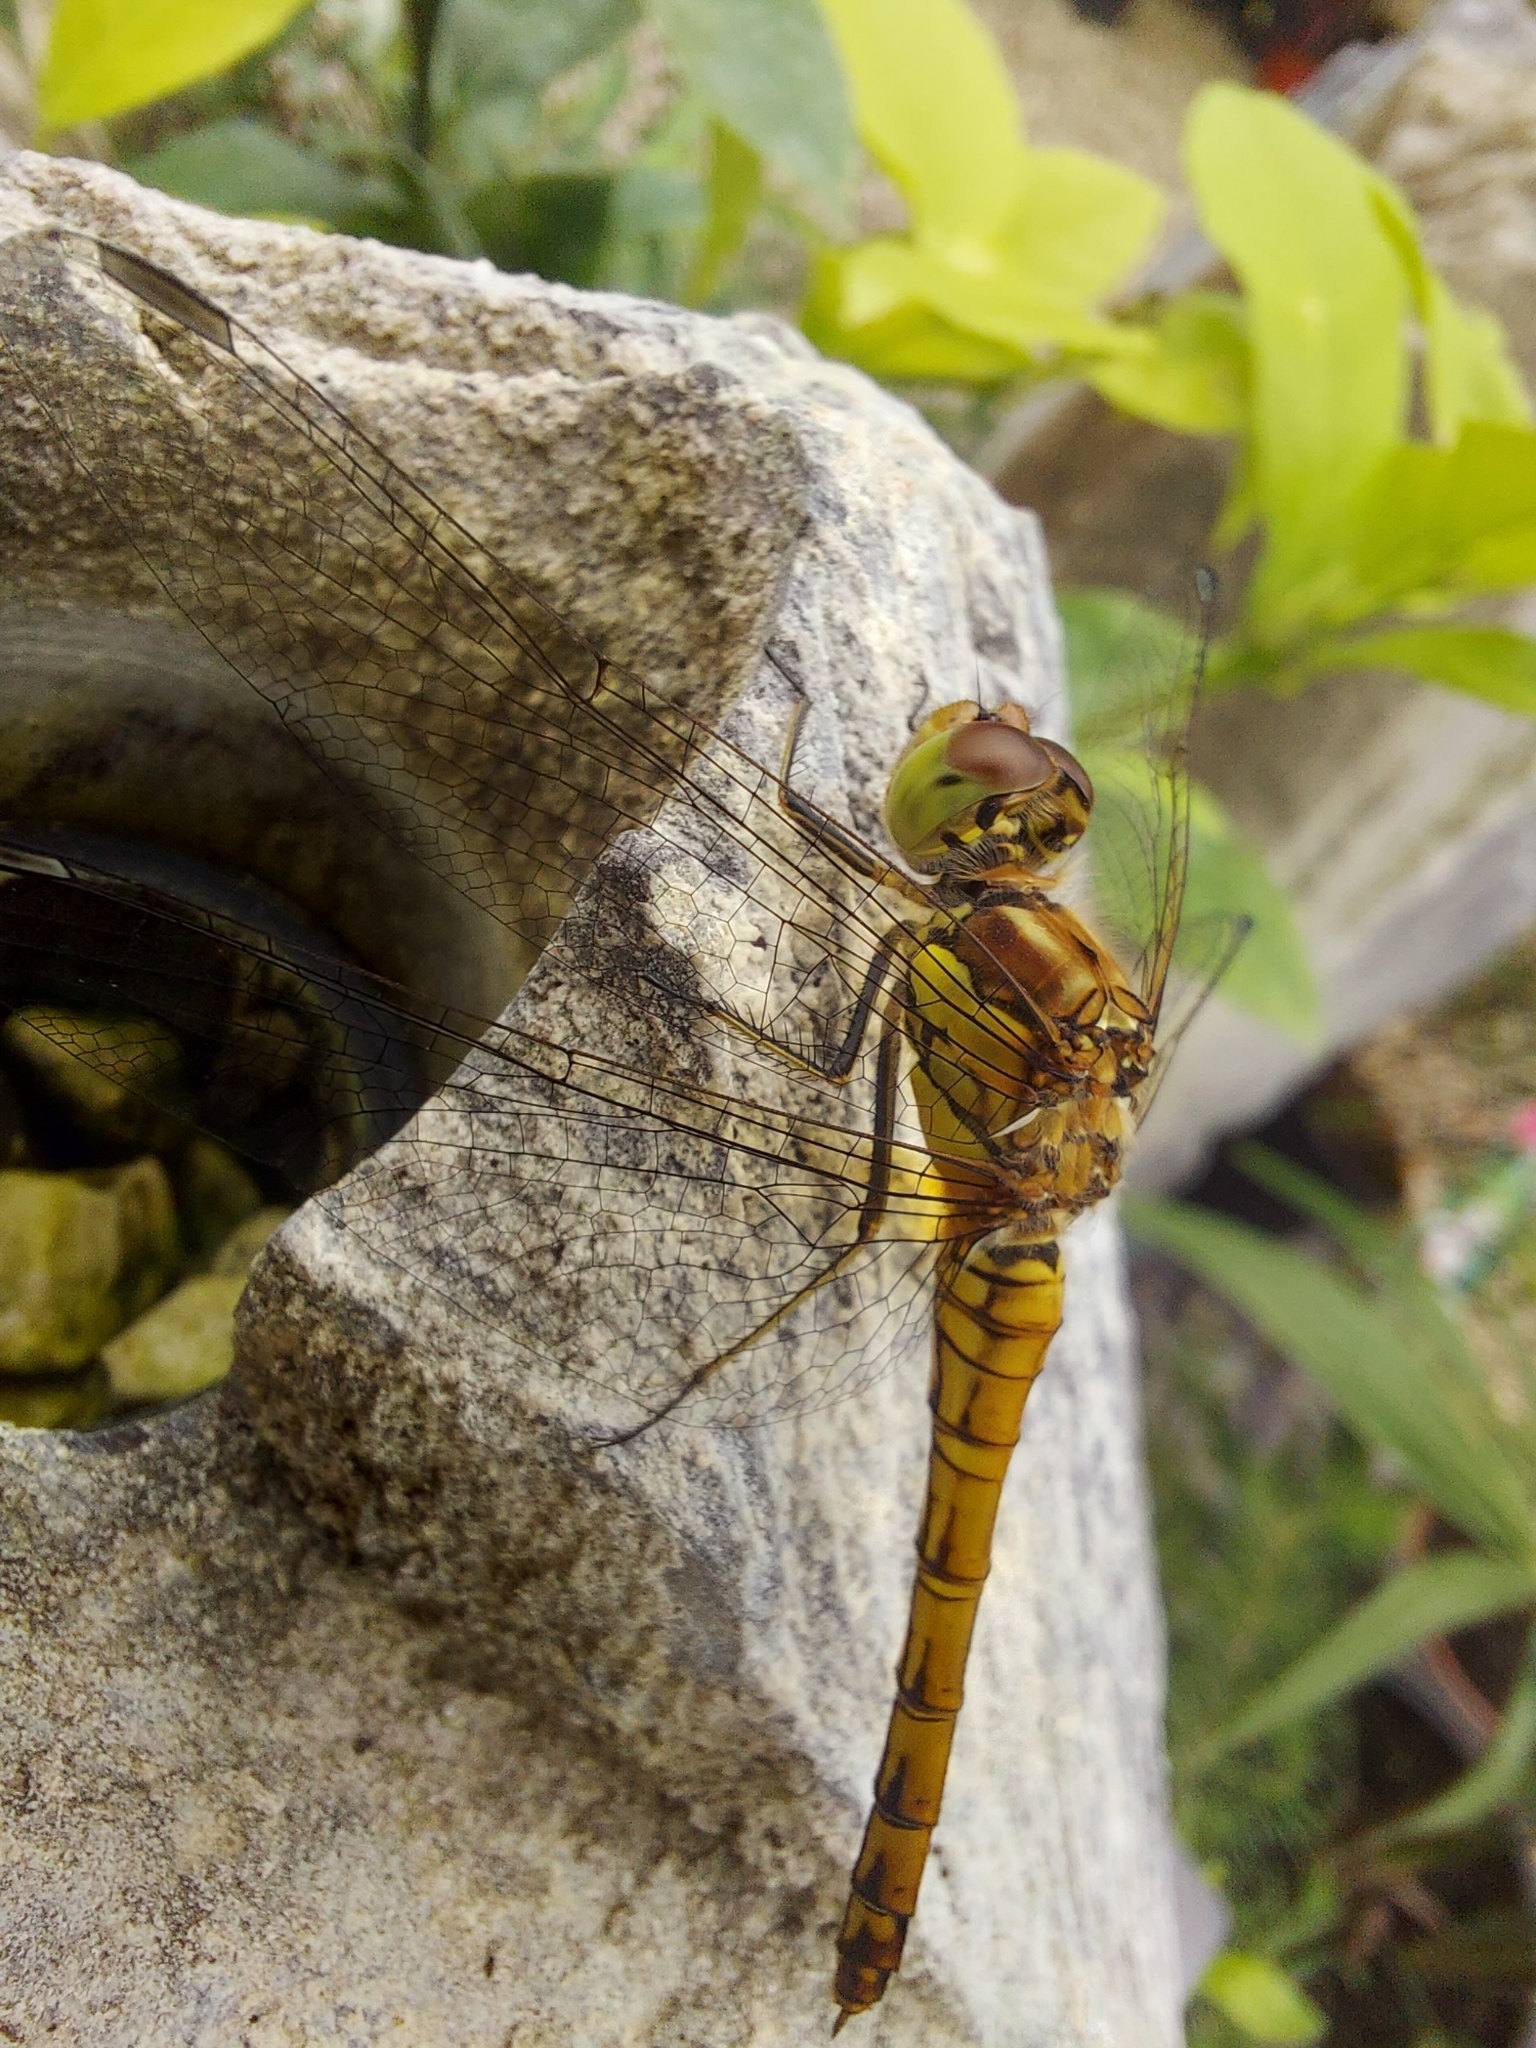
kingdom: Animalia
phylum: Arthropoda
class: Insecta
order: Odonata
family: Libellulidae
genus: Sympetrum
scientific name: Sympetrum striolatum
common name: Common darter
